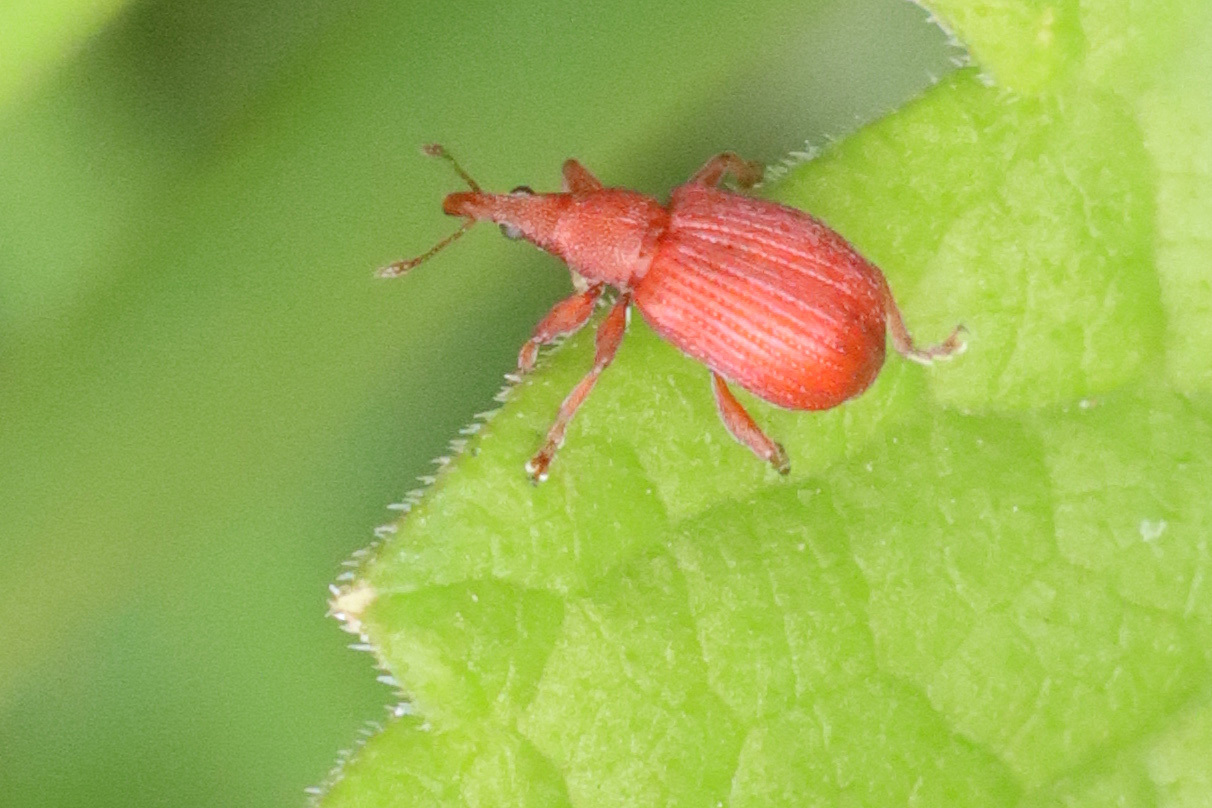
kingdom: Animalia
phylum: Arthropoda
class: Insecta
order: Coleoptera
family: Apionidae
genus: Apion
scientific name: Apion frumentarium
